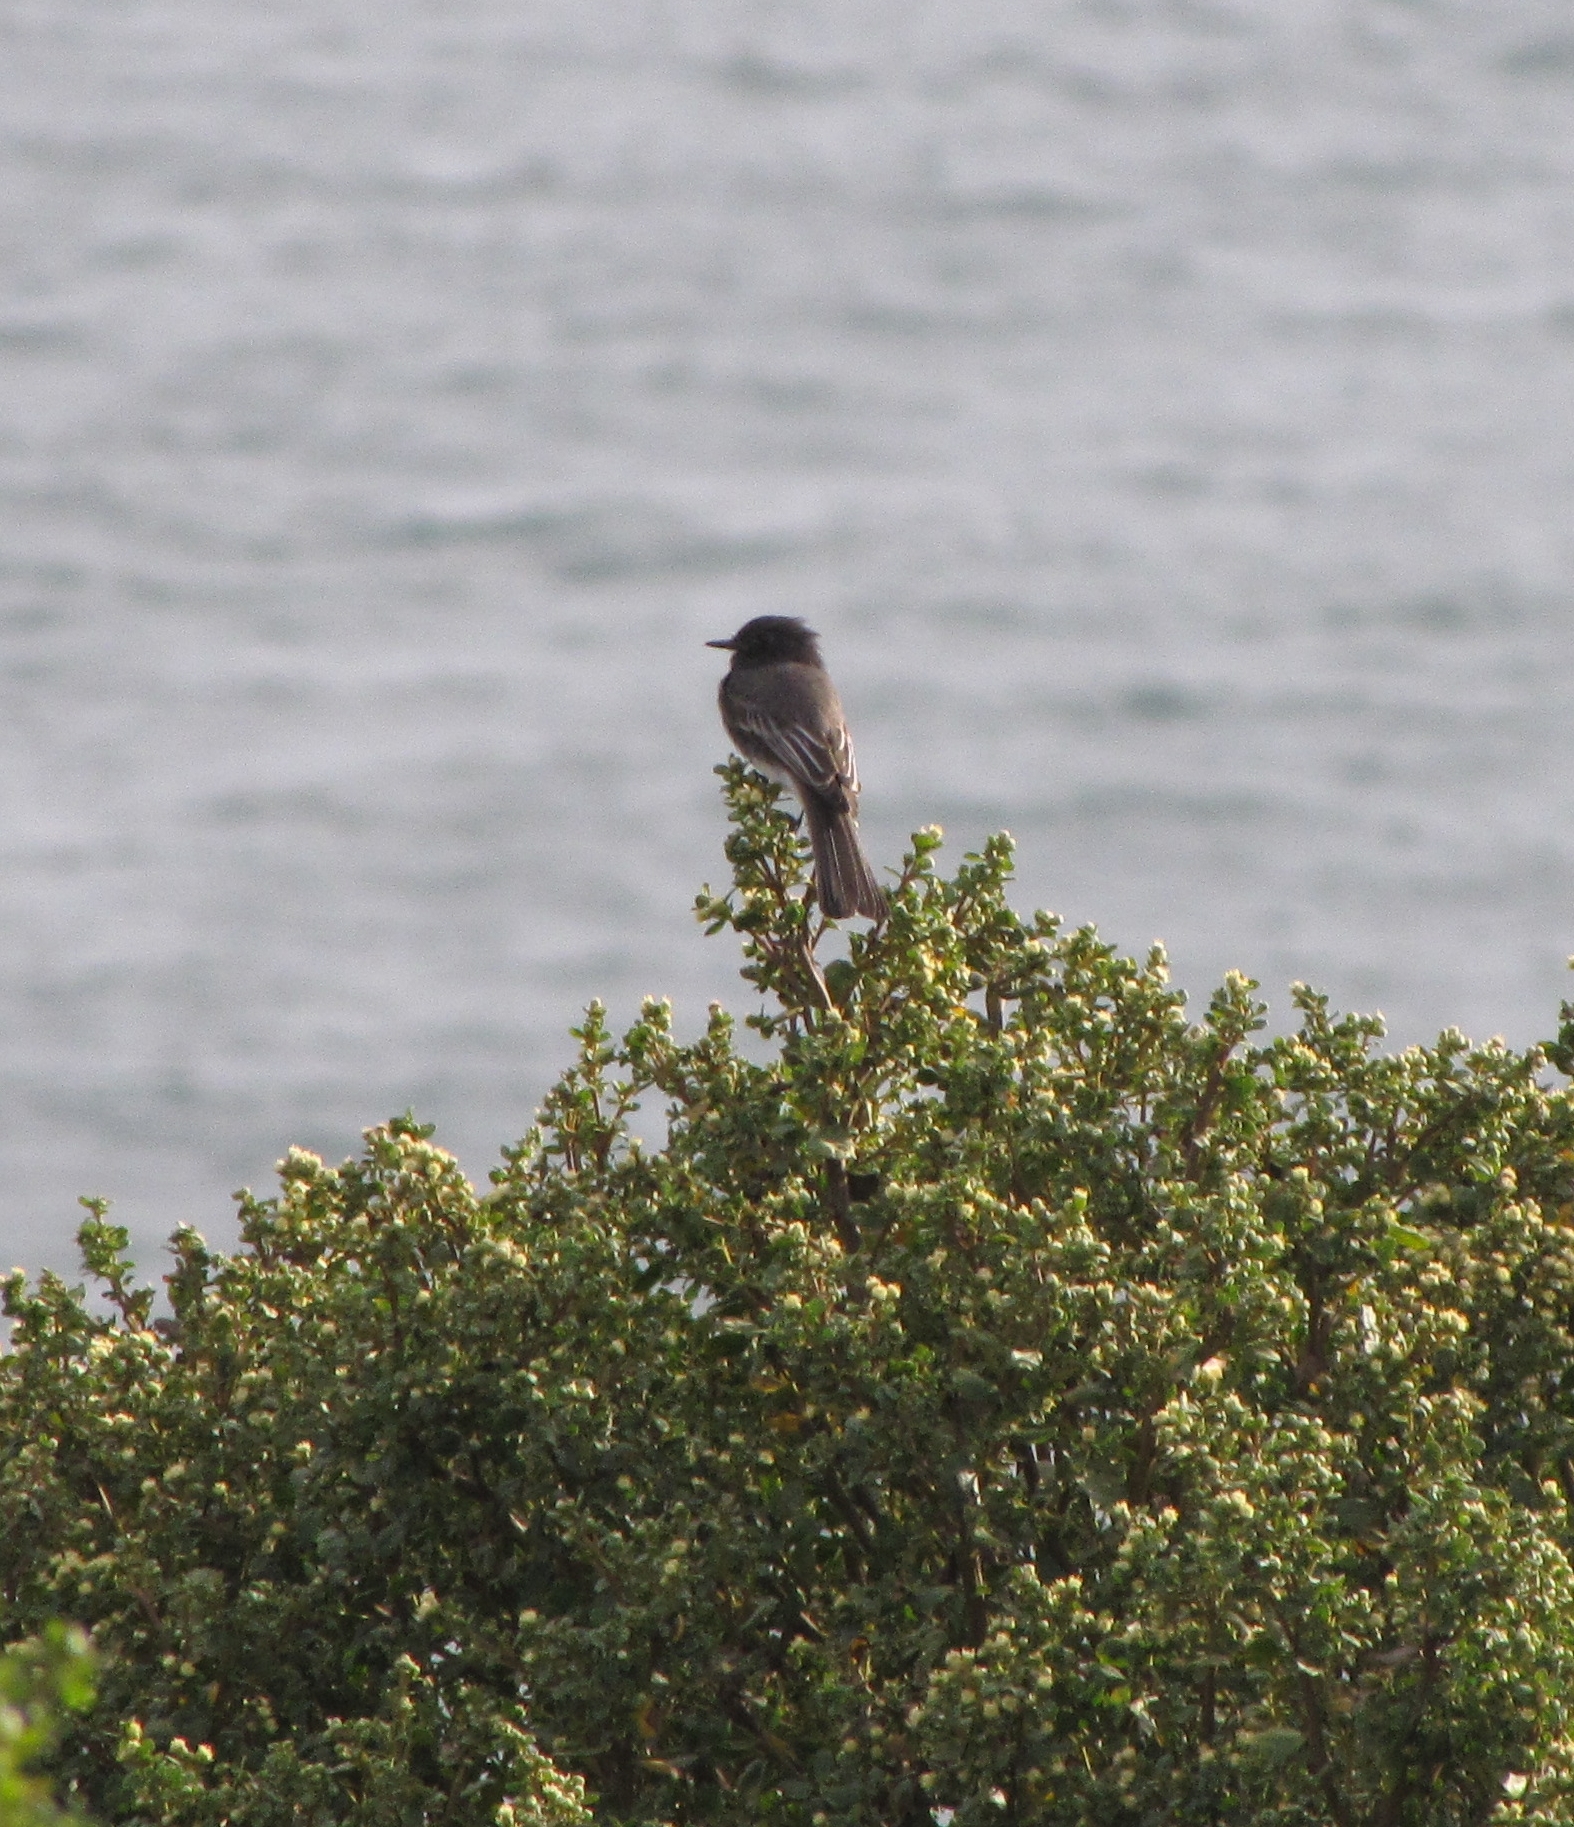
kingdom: Animalia
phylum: Chordata
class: Aves
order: Passeriformes
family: Tyrannidae
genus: Sayornis
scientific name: Sayornis nigricans
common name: Black phoebe
